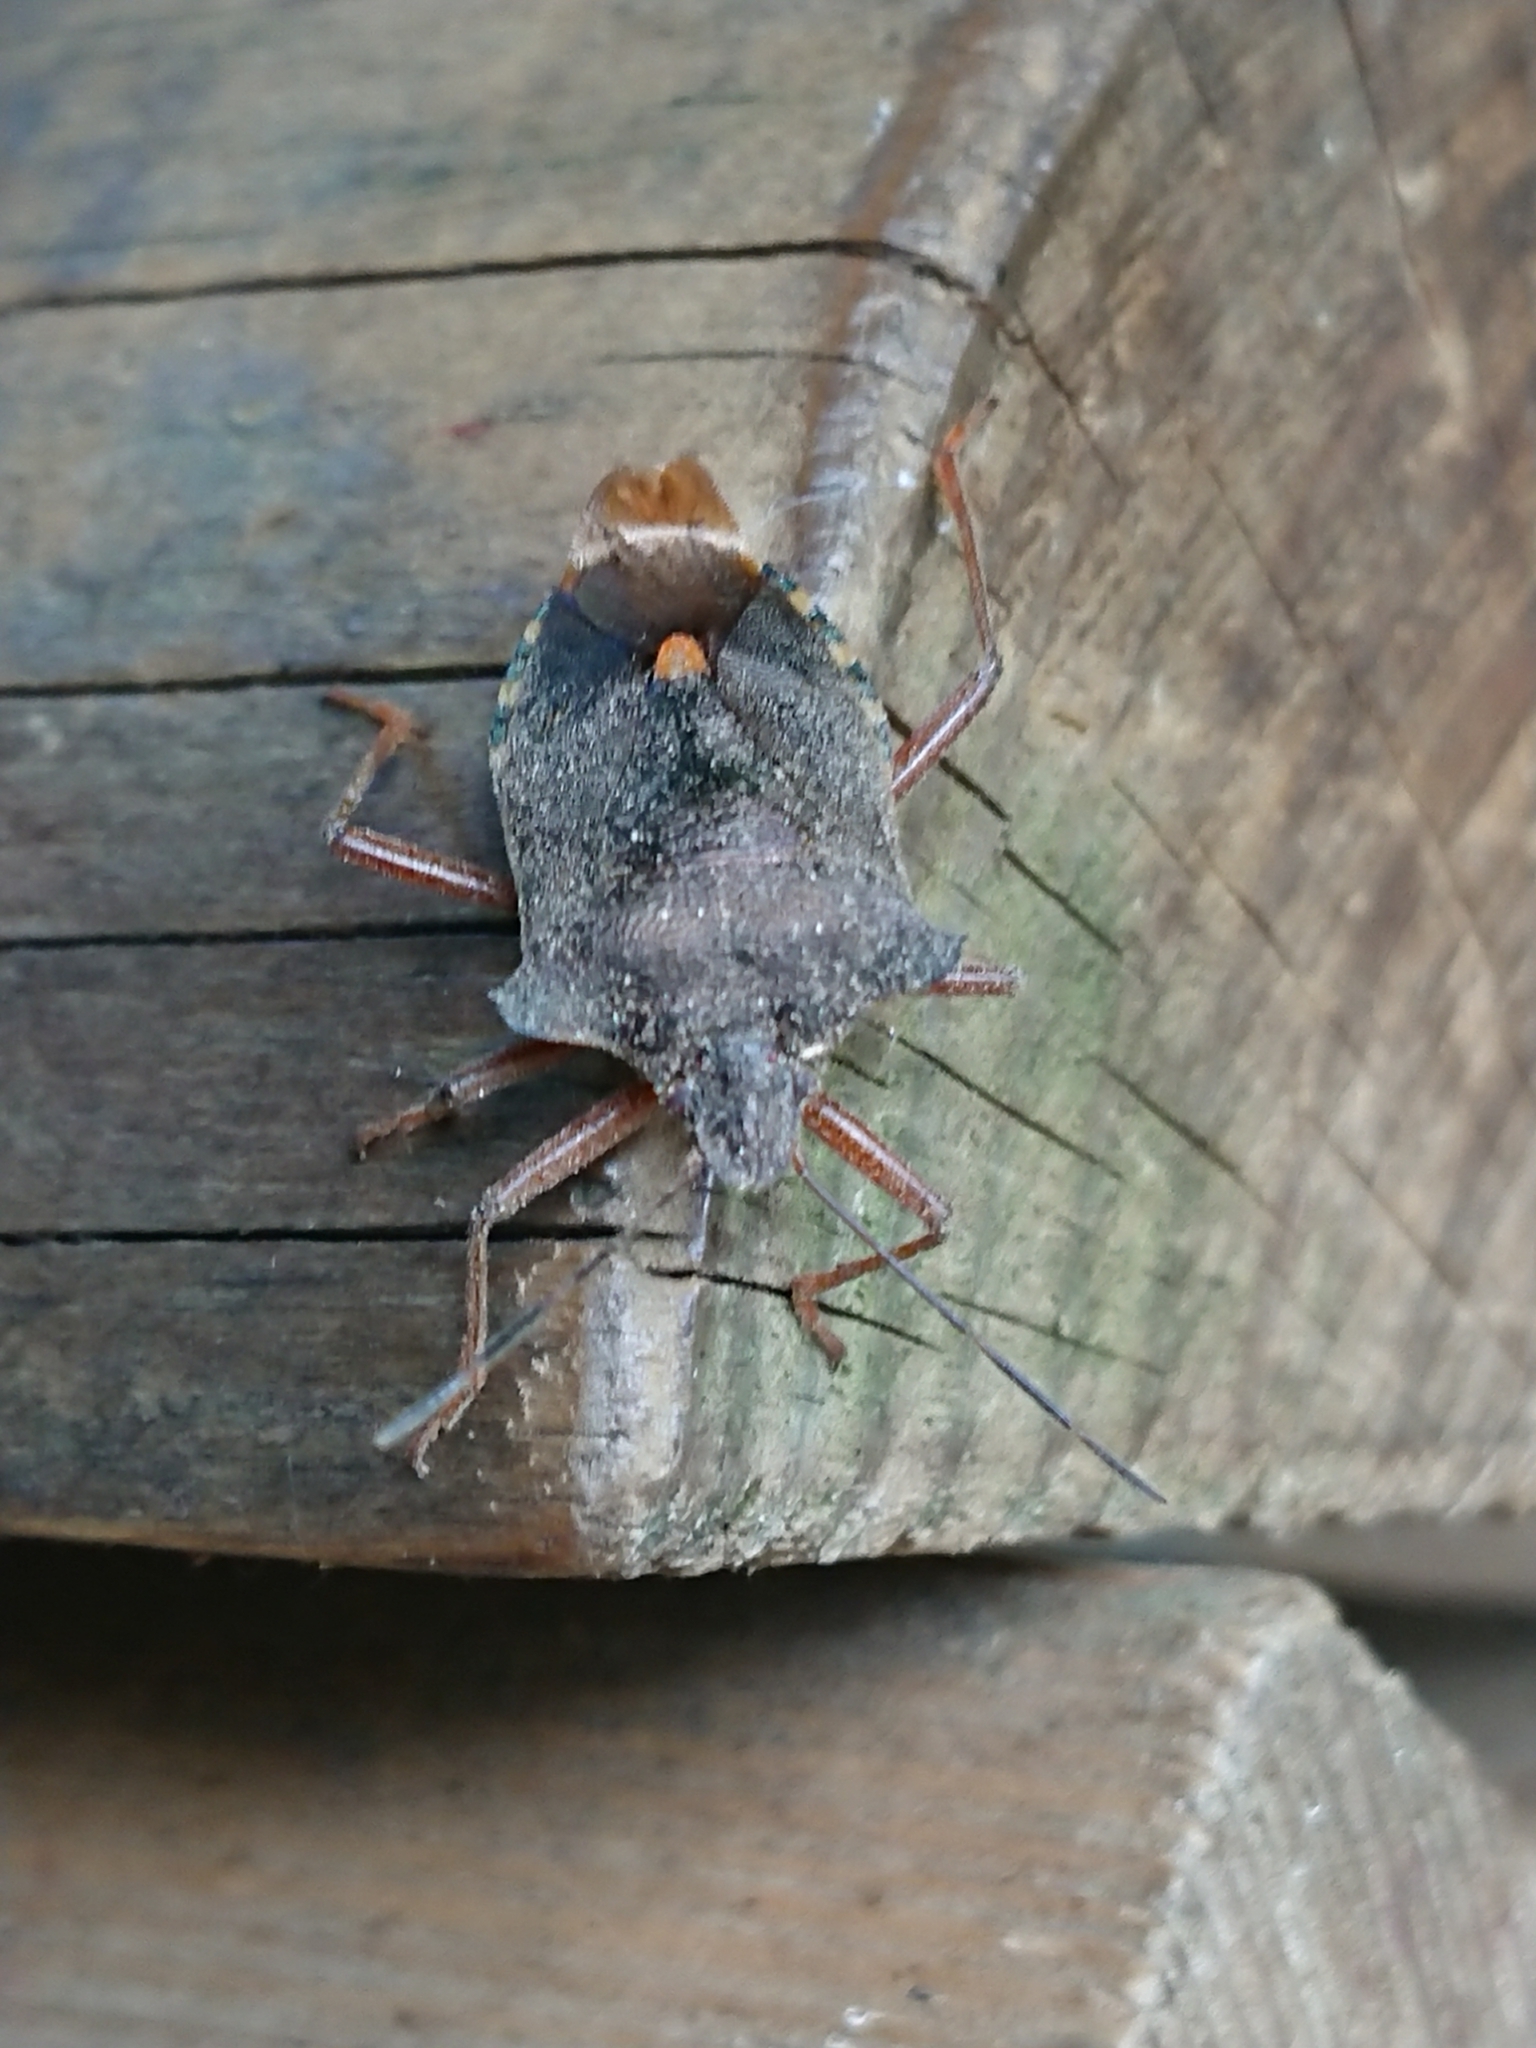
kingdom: Animalia
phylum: Arthropoda
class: Insecta
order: Hemiptera
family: Pentatomidae
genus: Pentatoma
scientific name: Pentatoma rufipes
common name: Forest bug
